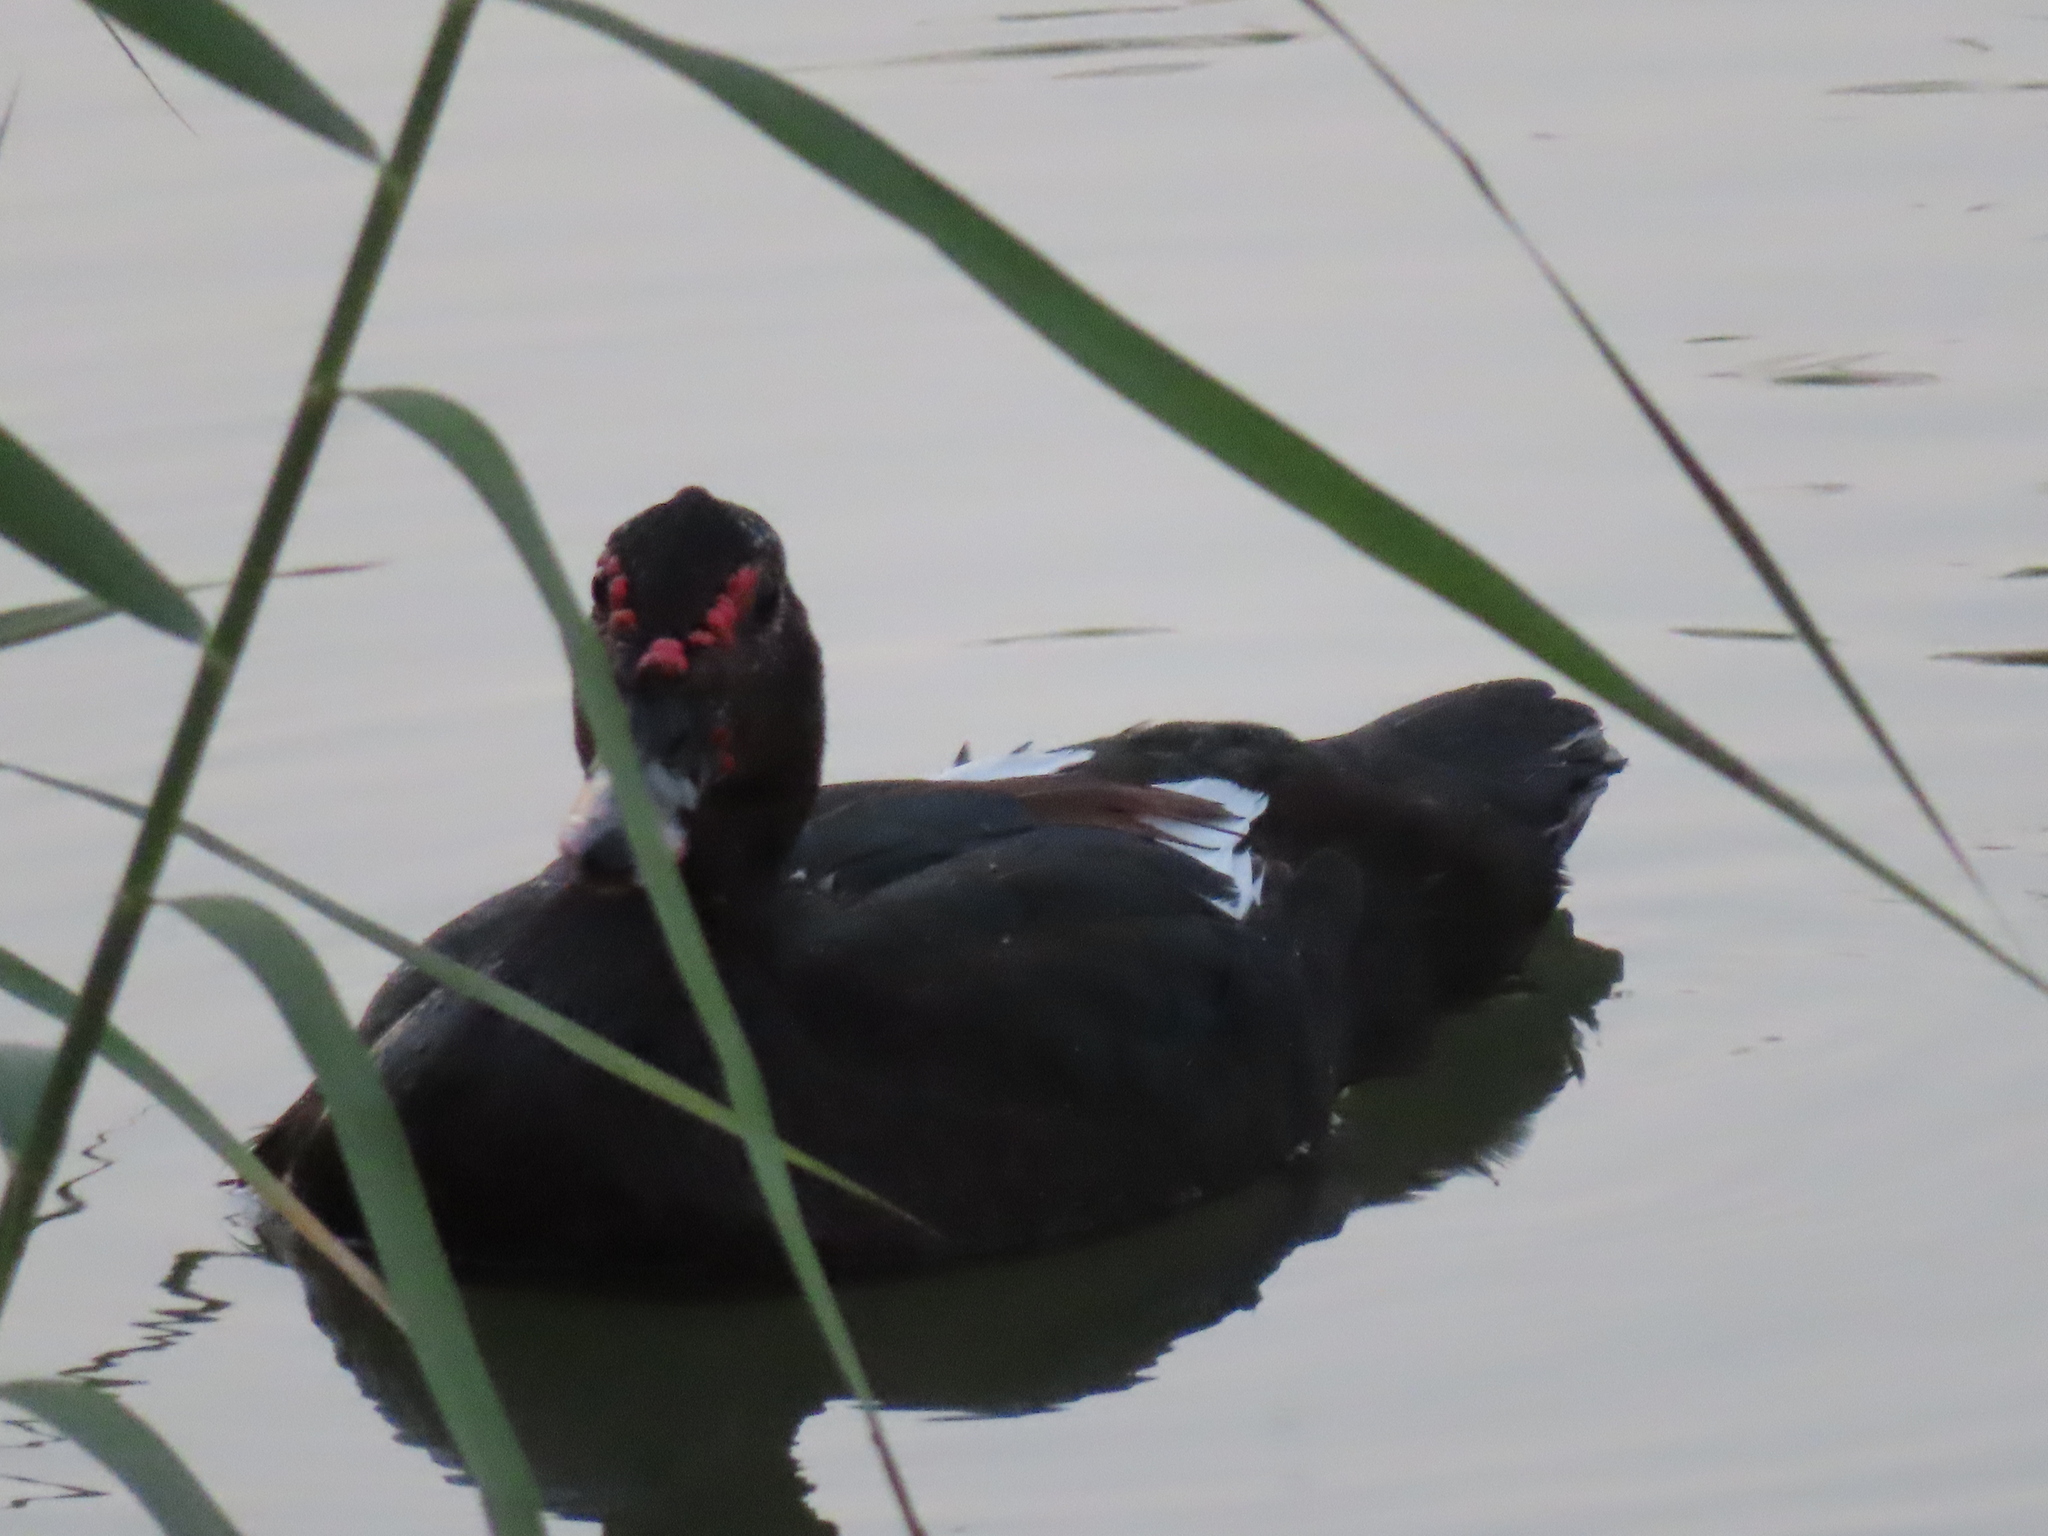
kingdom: Animalia
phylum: Chordata
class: Aves
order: Anseriformes
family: Anatidae
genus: Cairina
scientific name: Cairina moschata
